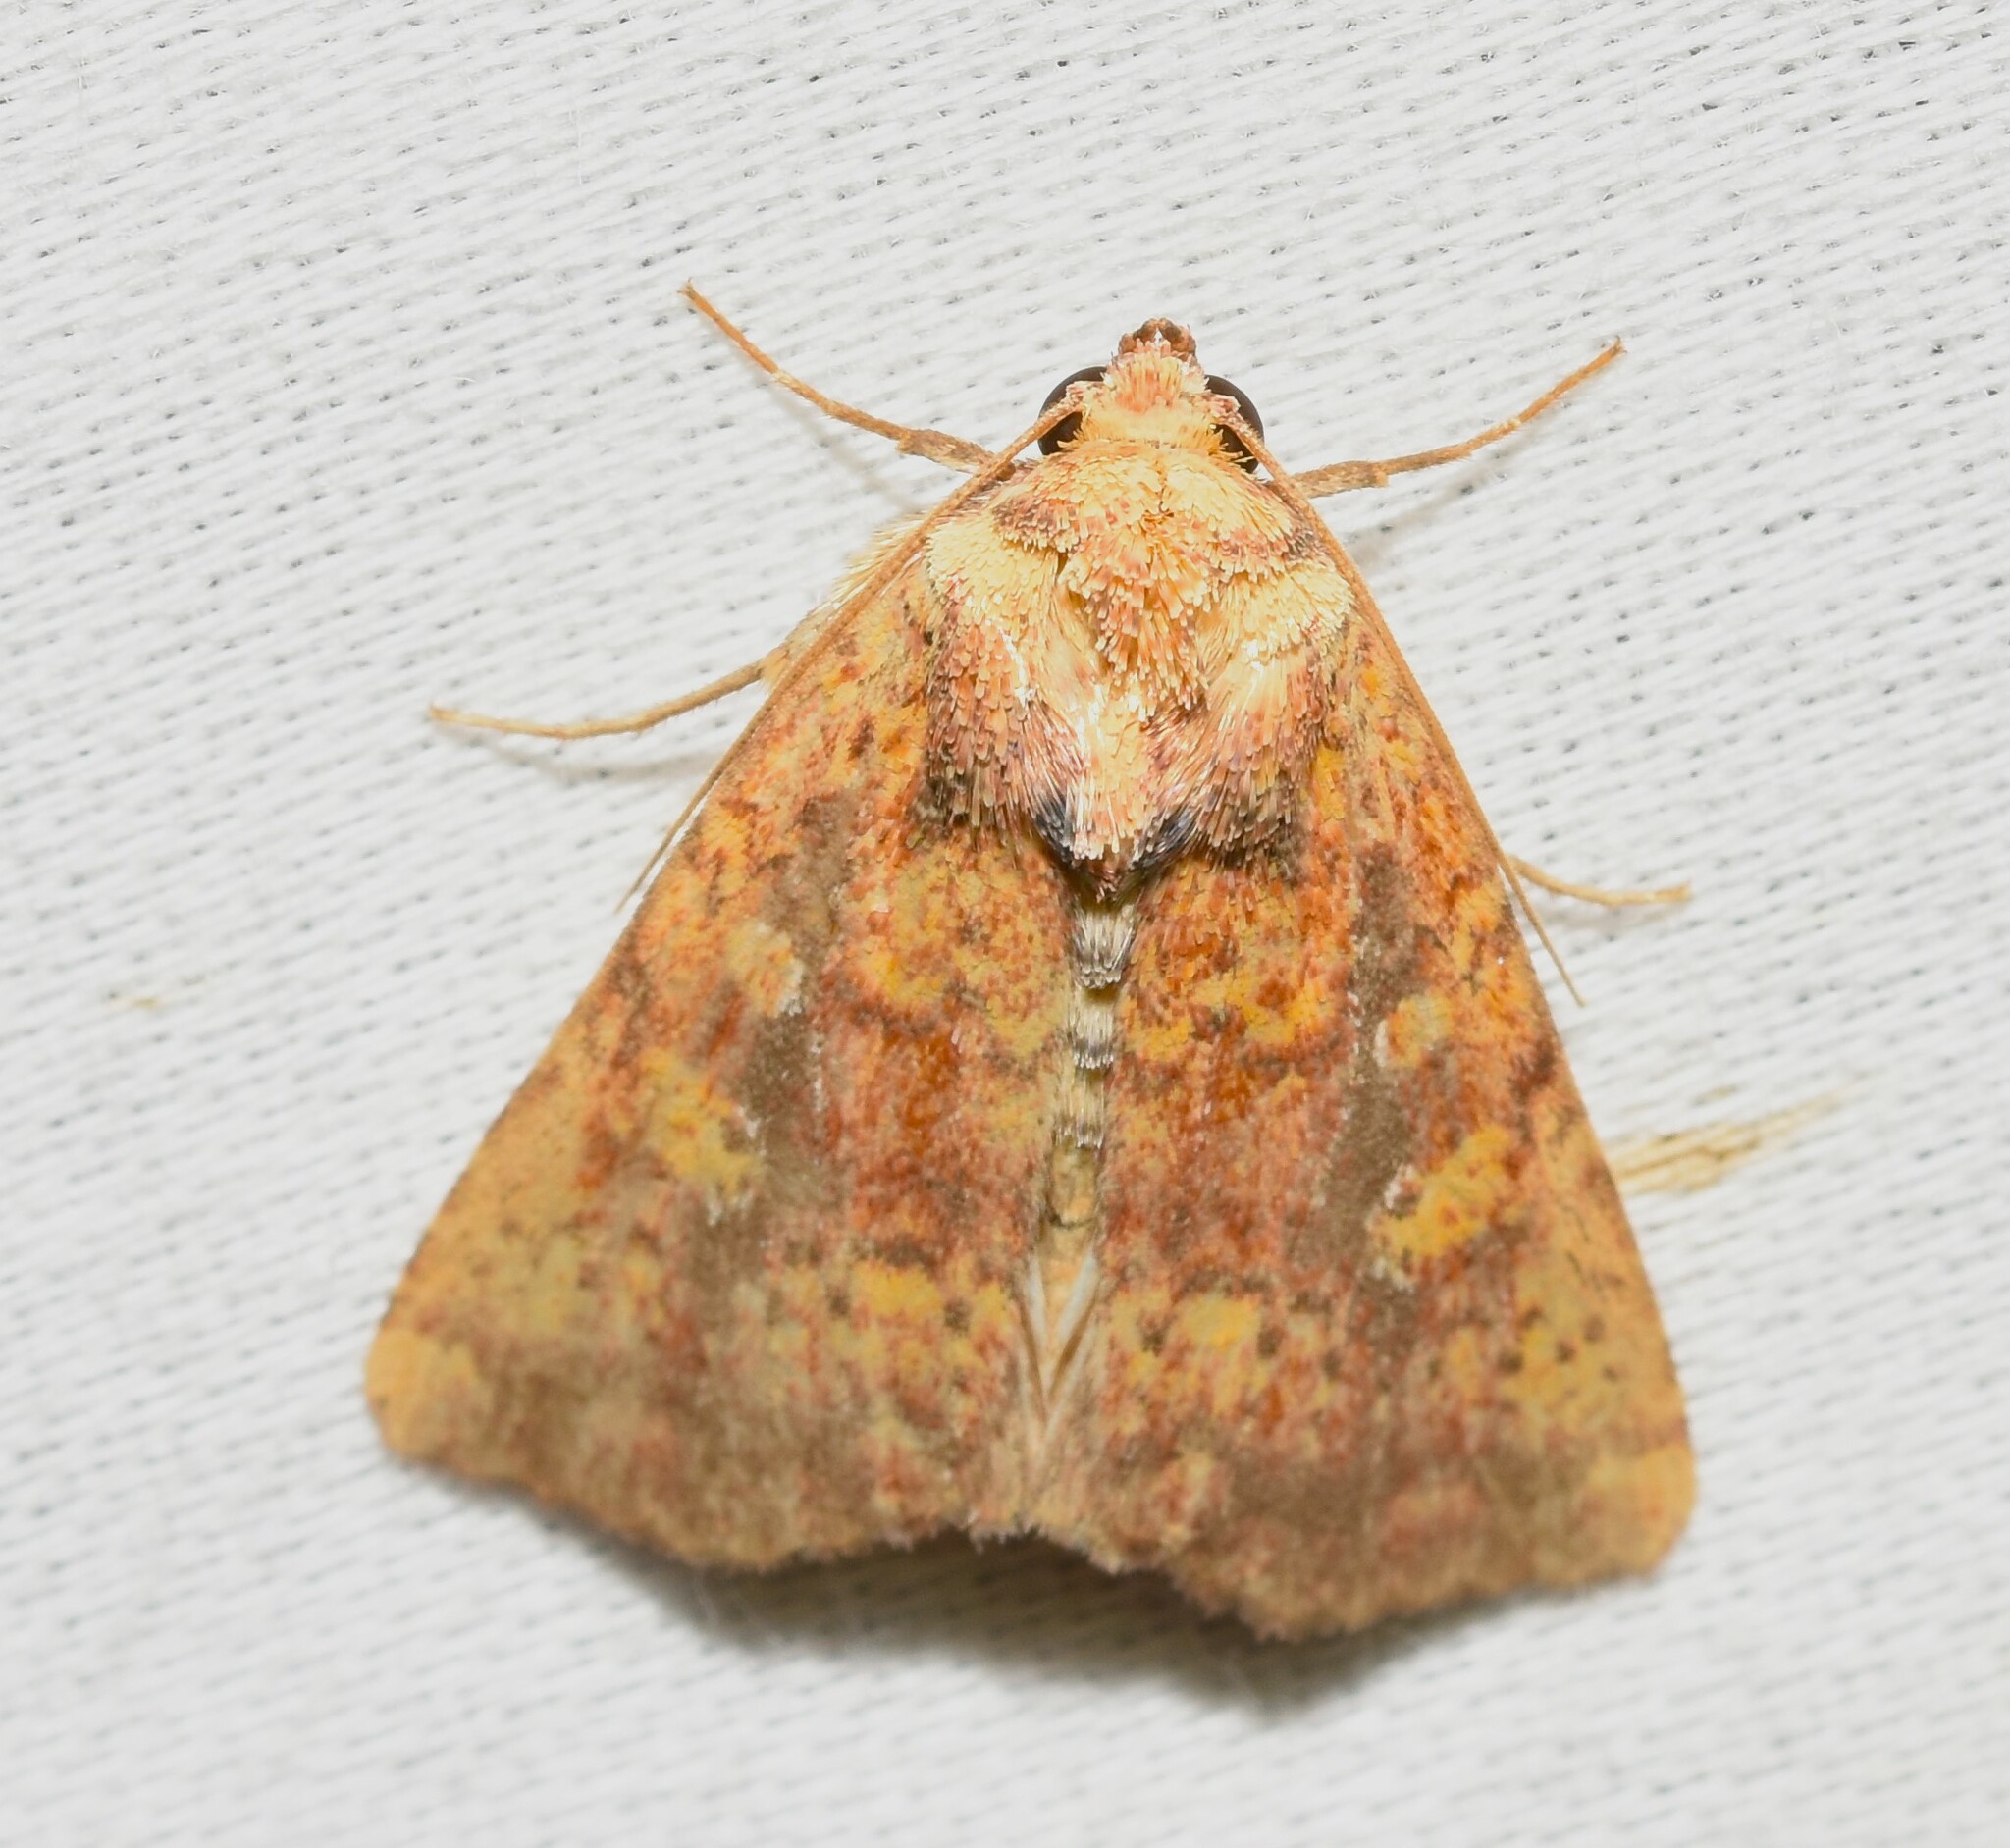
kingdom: Animalia
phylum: Arthropoda
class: Insecta
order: Lepidoptera
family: Noctuidae
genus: Perigea
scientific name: Perigea xanthioides
